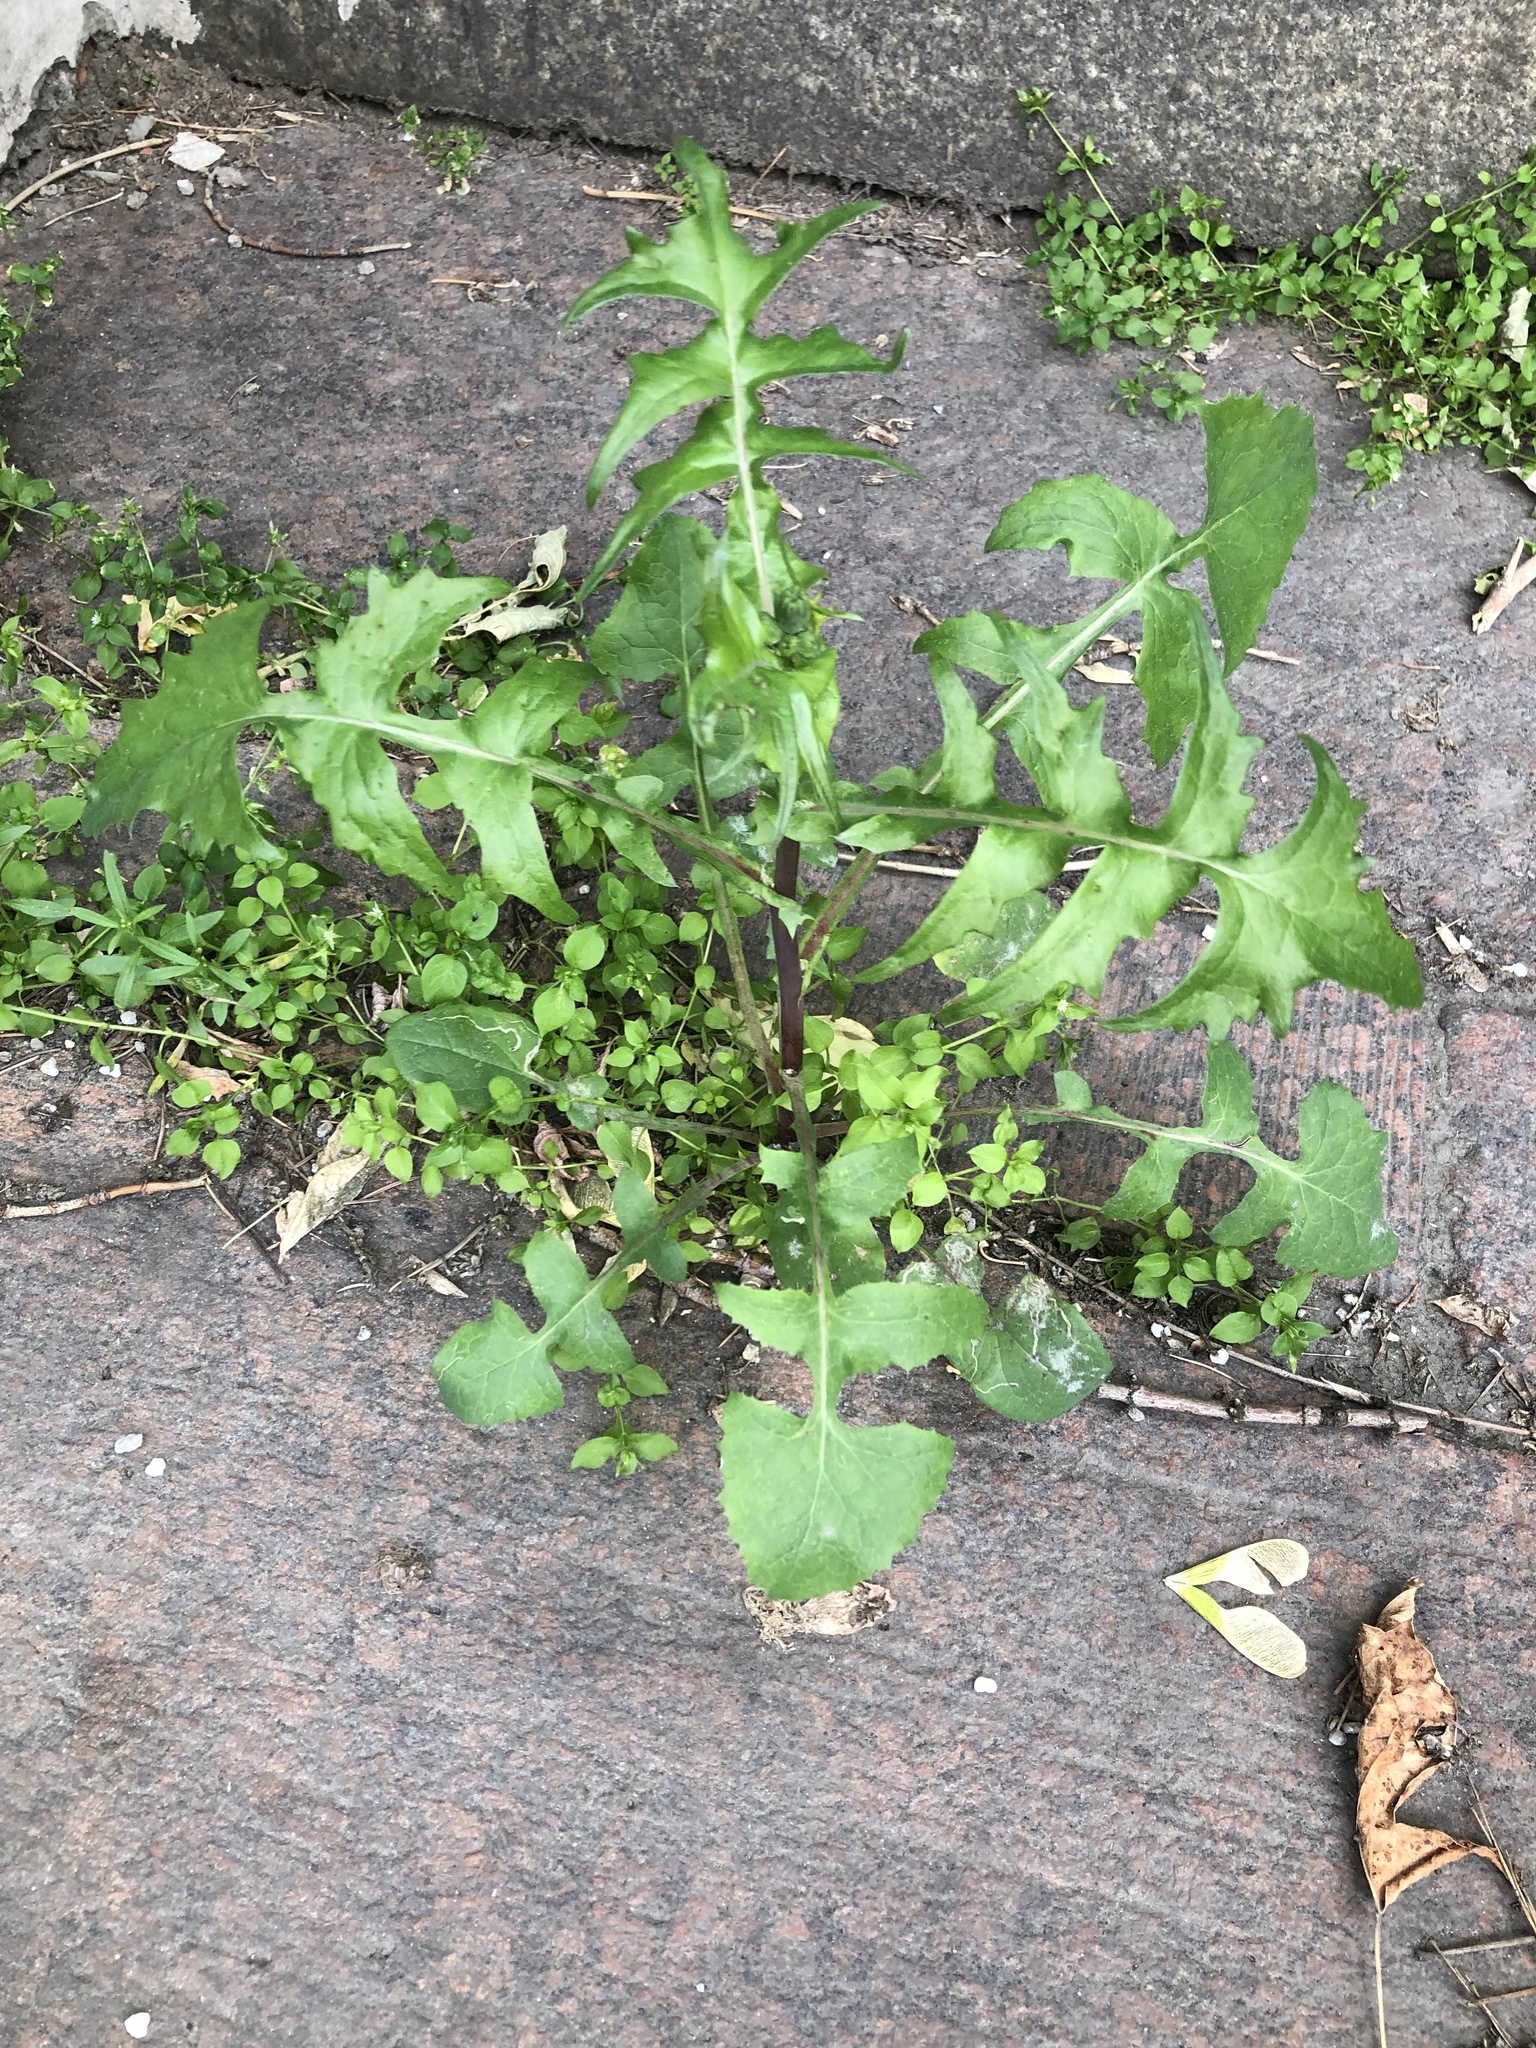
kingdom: Plantae
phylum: Tracheophyta
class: Magnoliopsida
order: Asterales
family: Asteraceae
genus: Sonchus
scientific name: Sonchus oleraceus
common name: Common sowthistle
